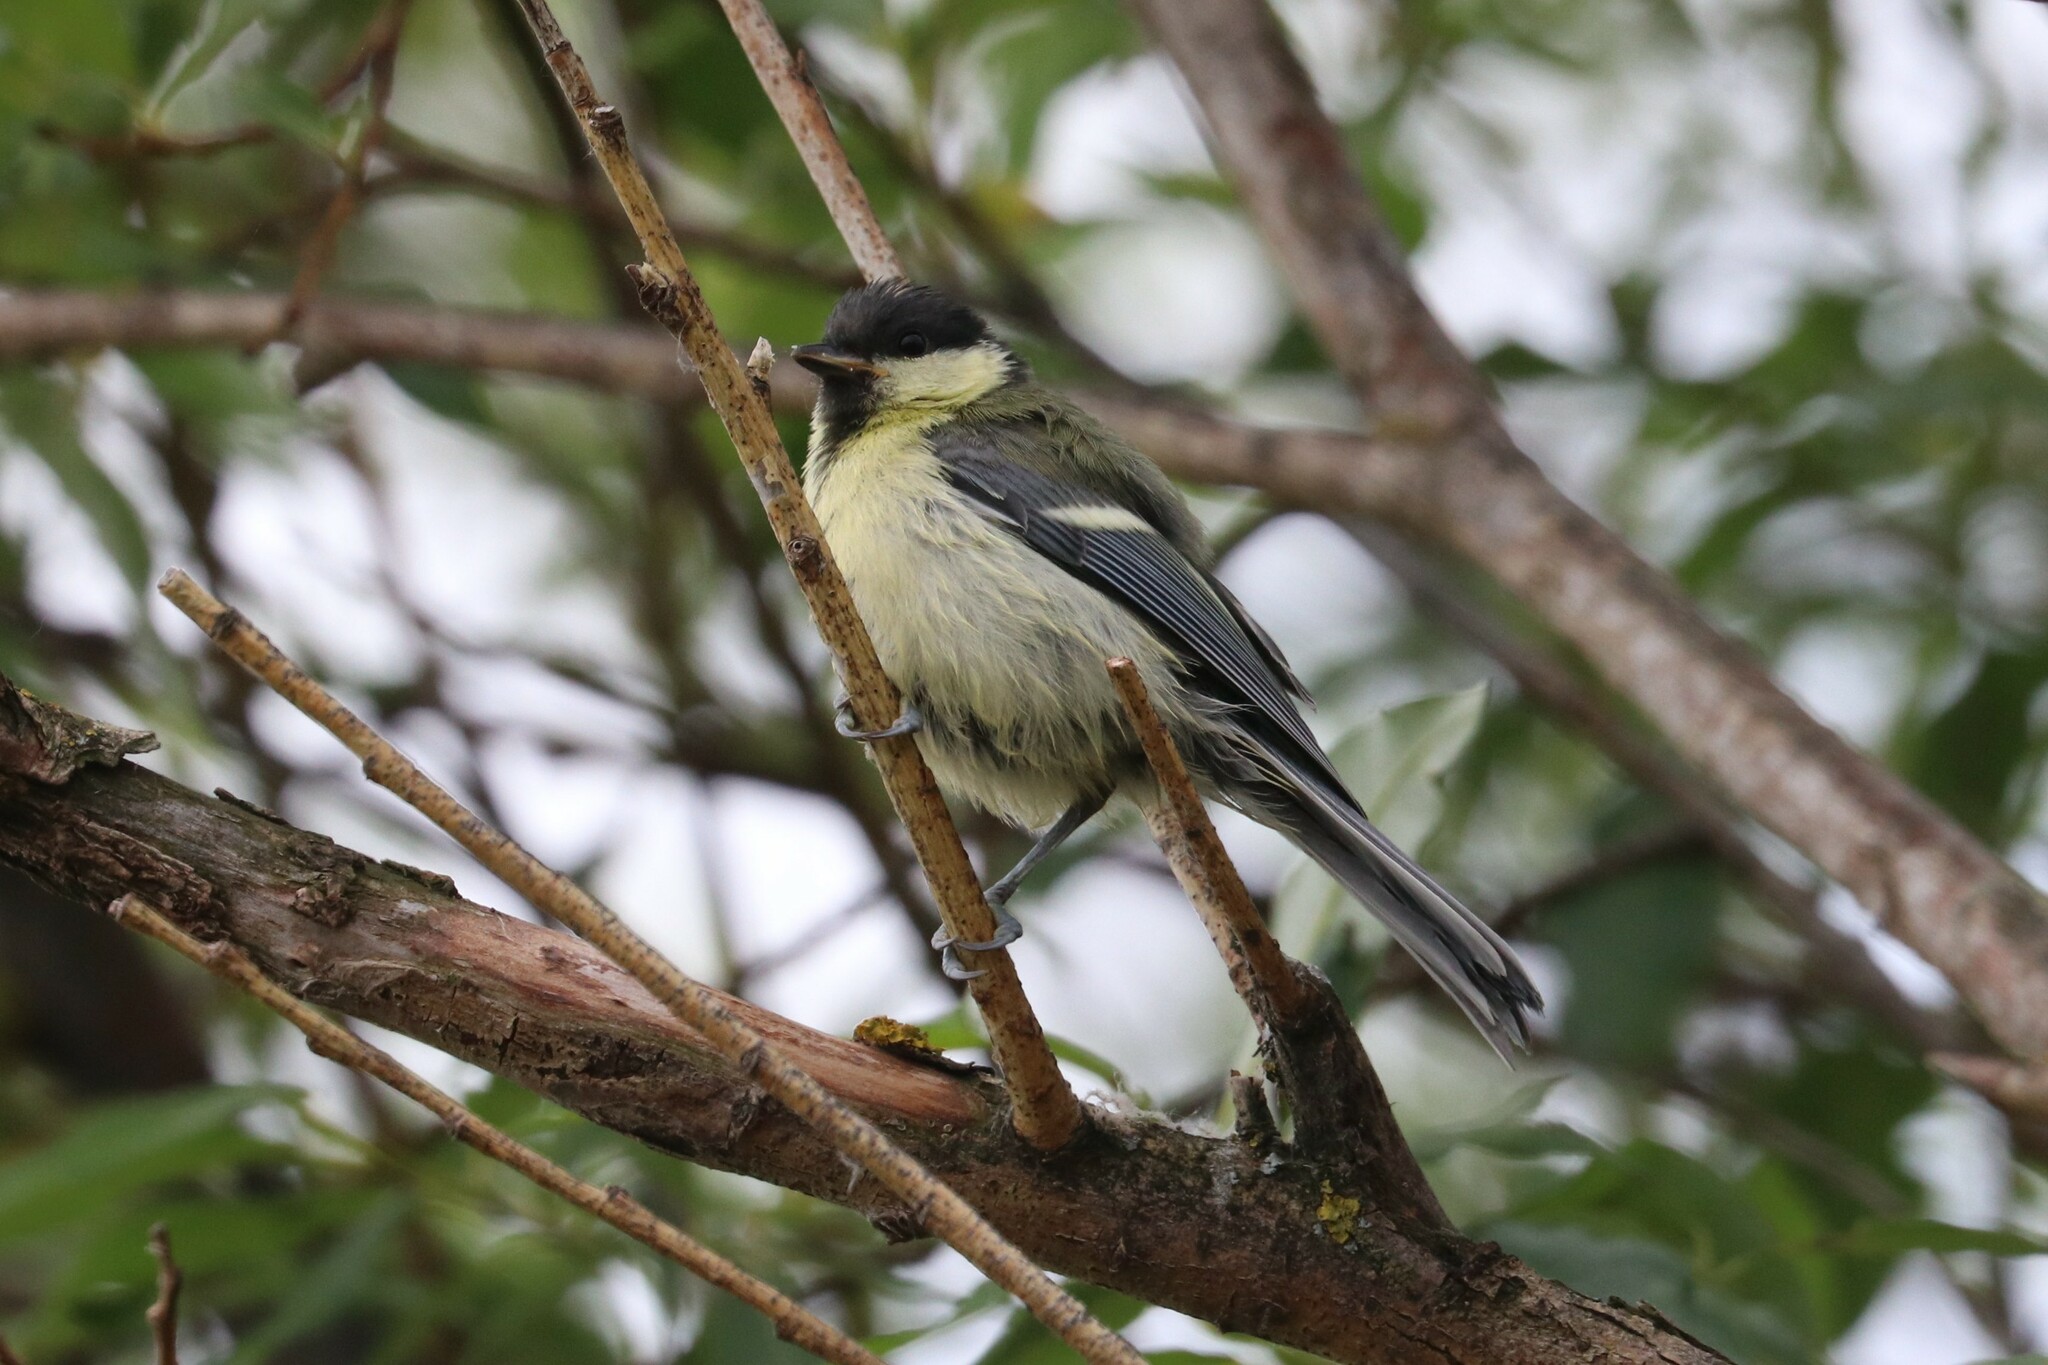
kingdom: Animalia
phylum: Chordata
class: Aves
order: Passeriformes
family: Paridae
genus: Parus
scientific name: Parus major
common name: Great tit
